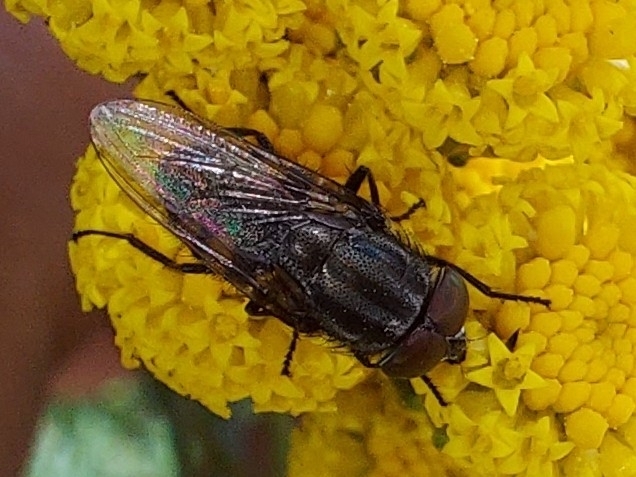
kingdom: Animalia
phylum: Arthropoda
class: Insecta
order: Diptera
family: Calliphoridae
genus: Stomorhina
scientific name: Stomorhina lunata
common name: Locust blowfly
